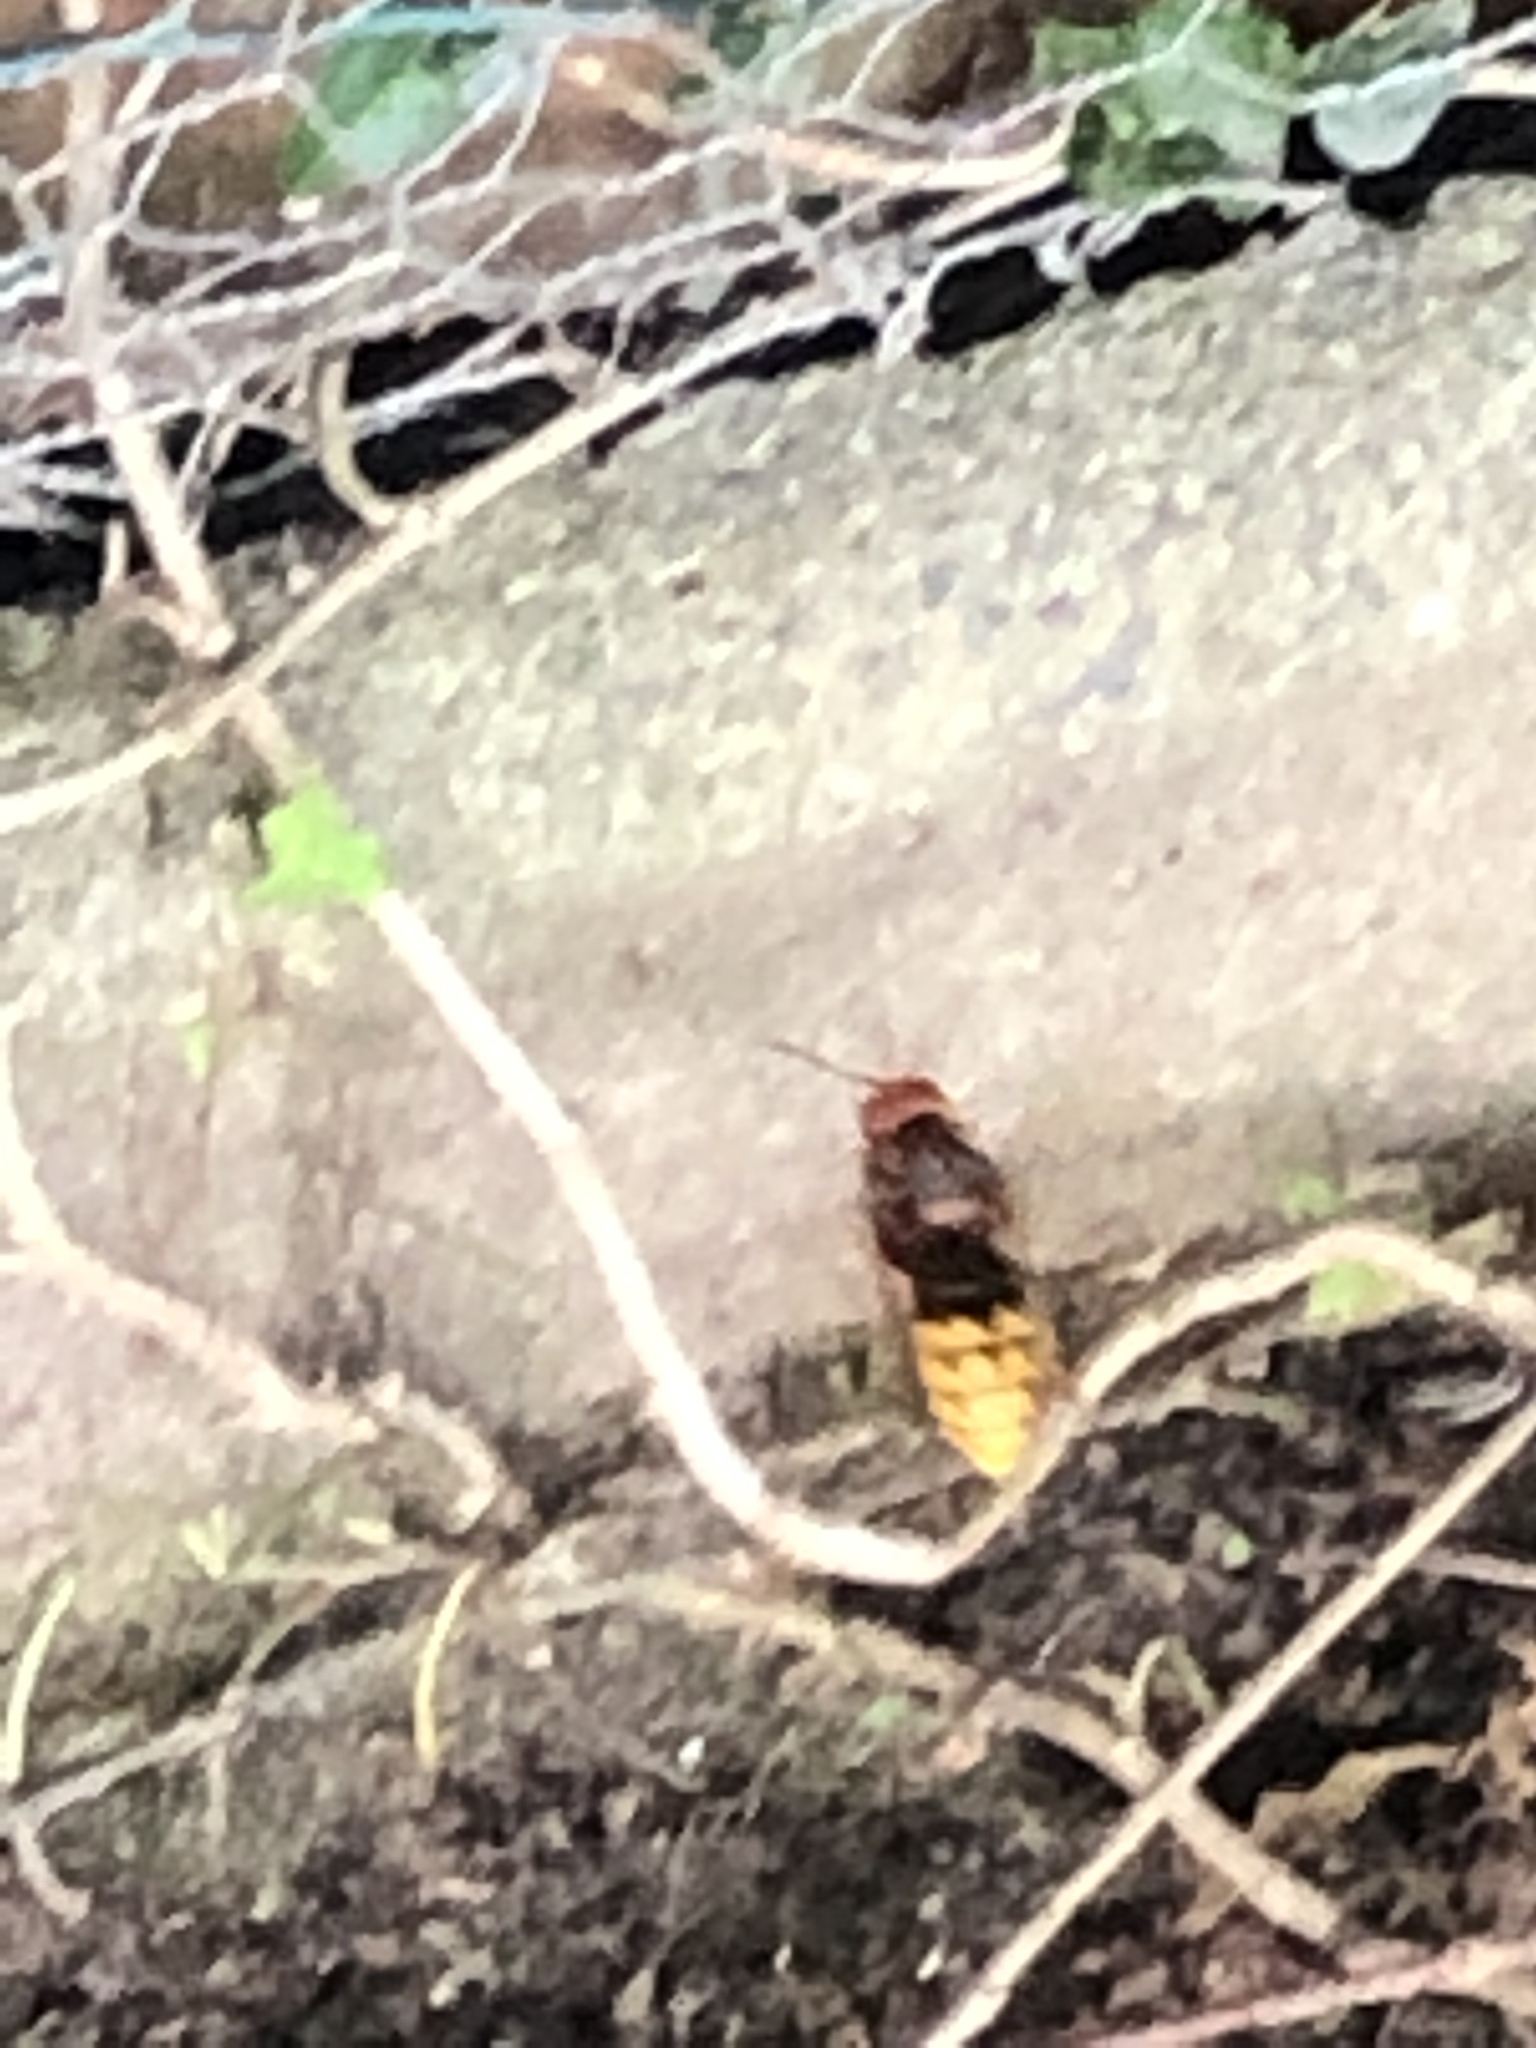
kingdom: Animalia
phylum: Arthropoda
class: Insecta
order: Hymenoptera
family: Vespidae
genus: Vespa
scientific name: Vespa crabro
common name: Hornet
